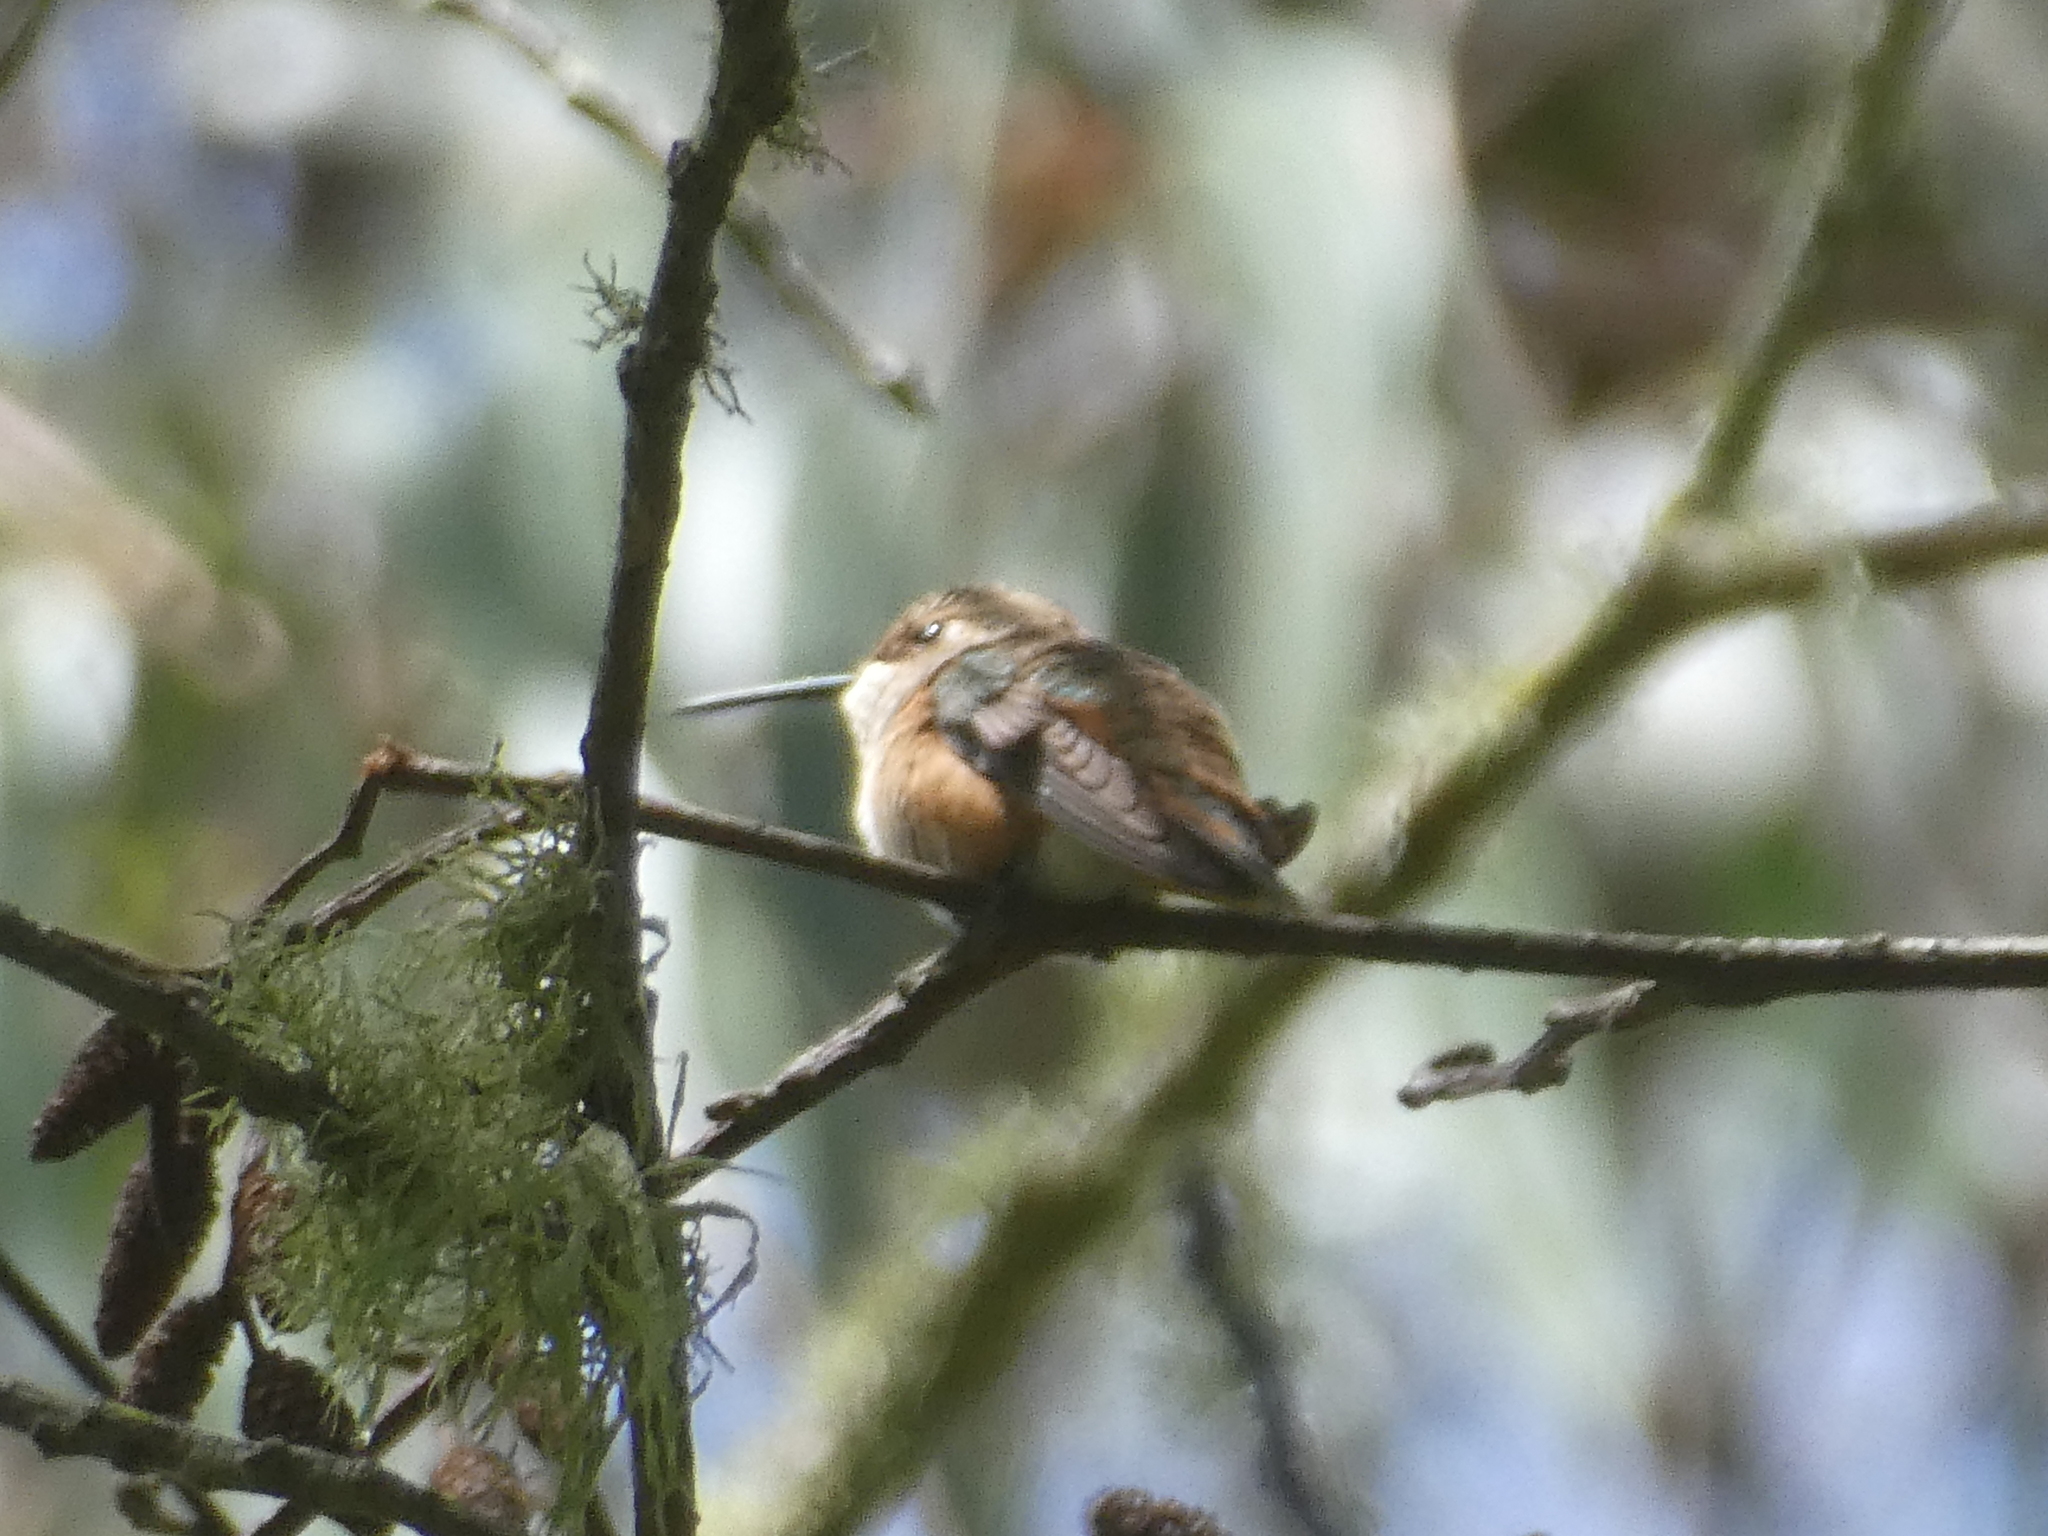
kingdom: Animalia
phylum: Chordata
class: Aves
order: Apodiformes
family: Trochilidae
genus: Selasphorus
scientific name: Selasphorus sasin
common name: Allen's hummingbird
